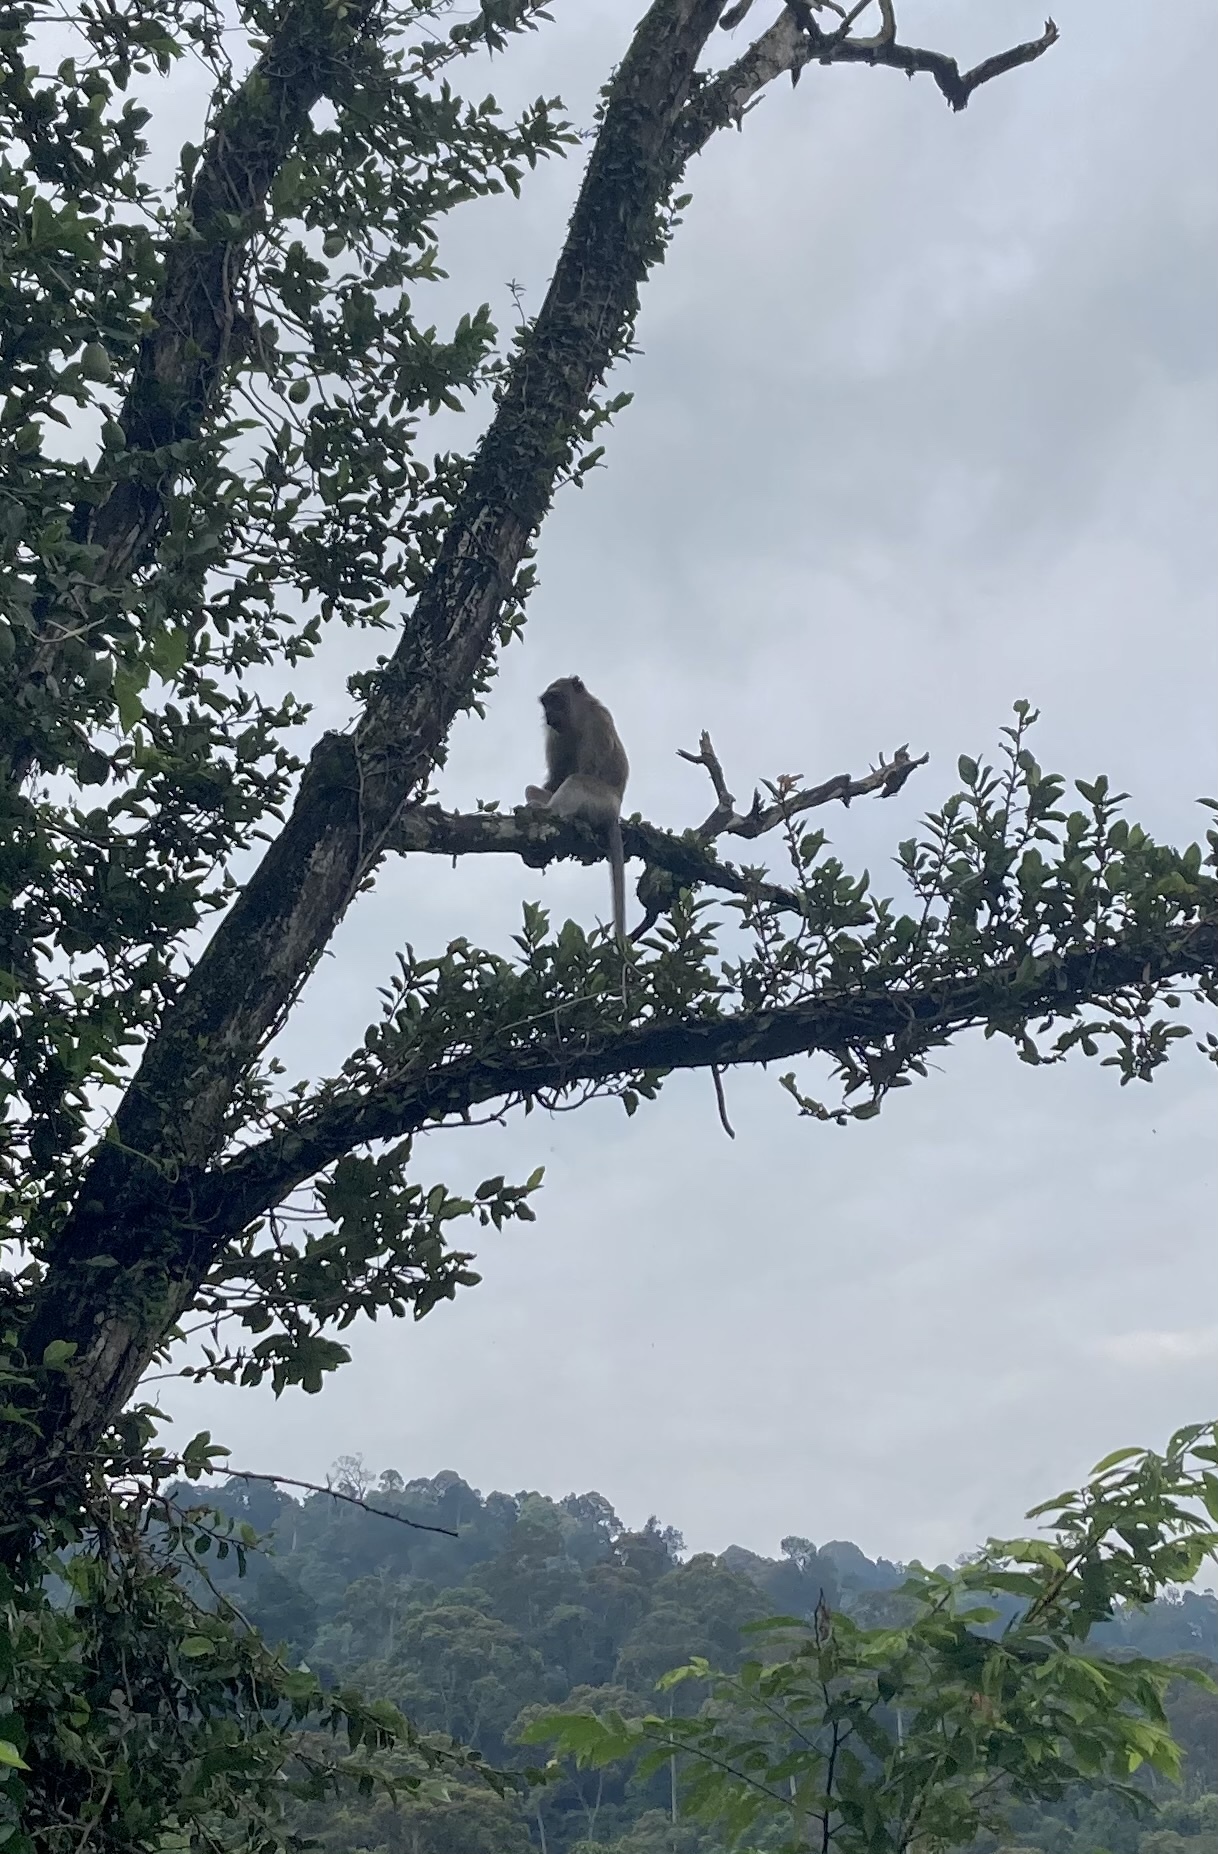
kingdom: Animalia
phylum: Chordata
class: Mammalia
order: Primates
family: Cercopithecidae
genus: Macaca
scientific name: Macaca fascicularis
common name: Crab-eating macaque
